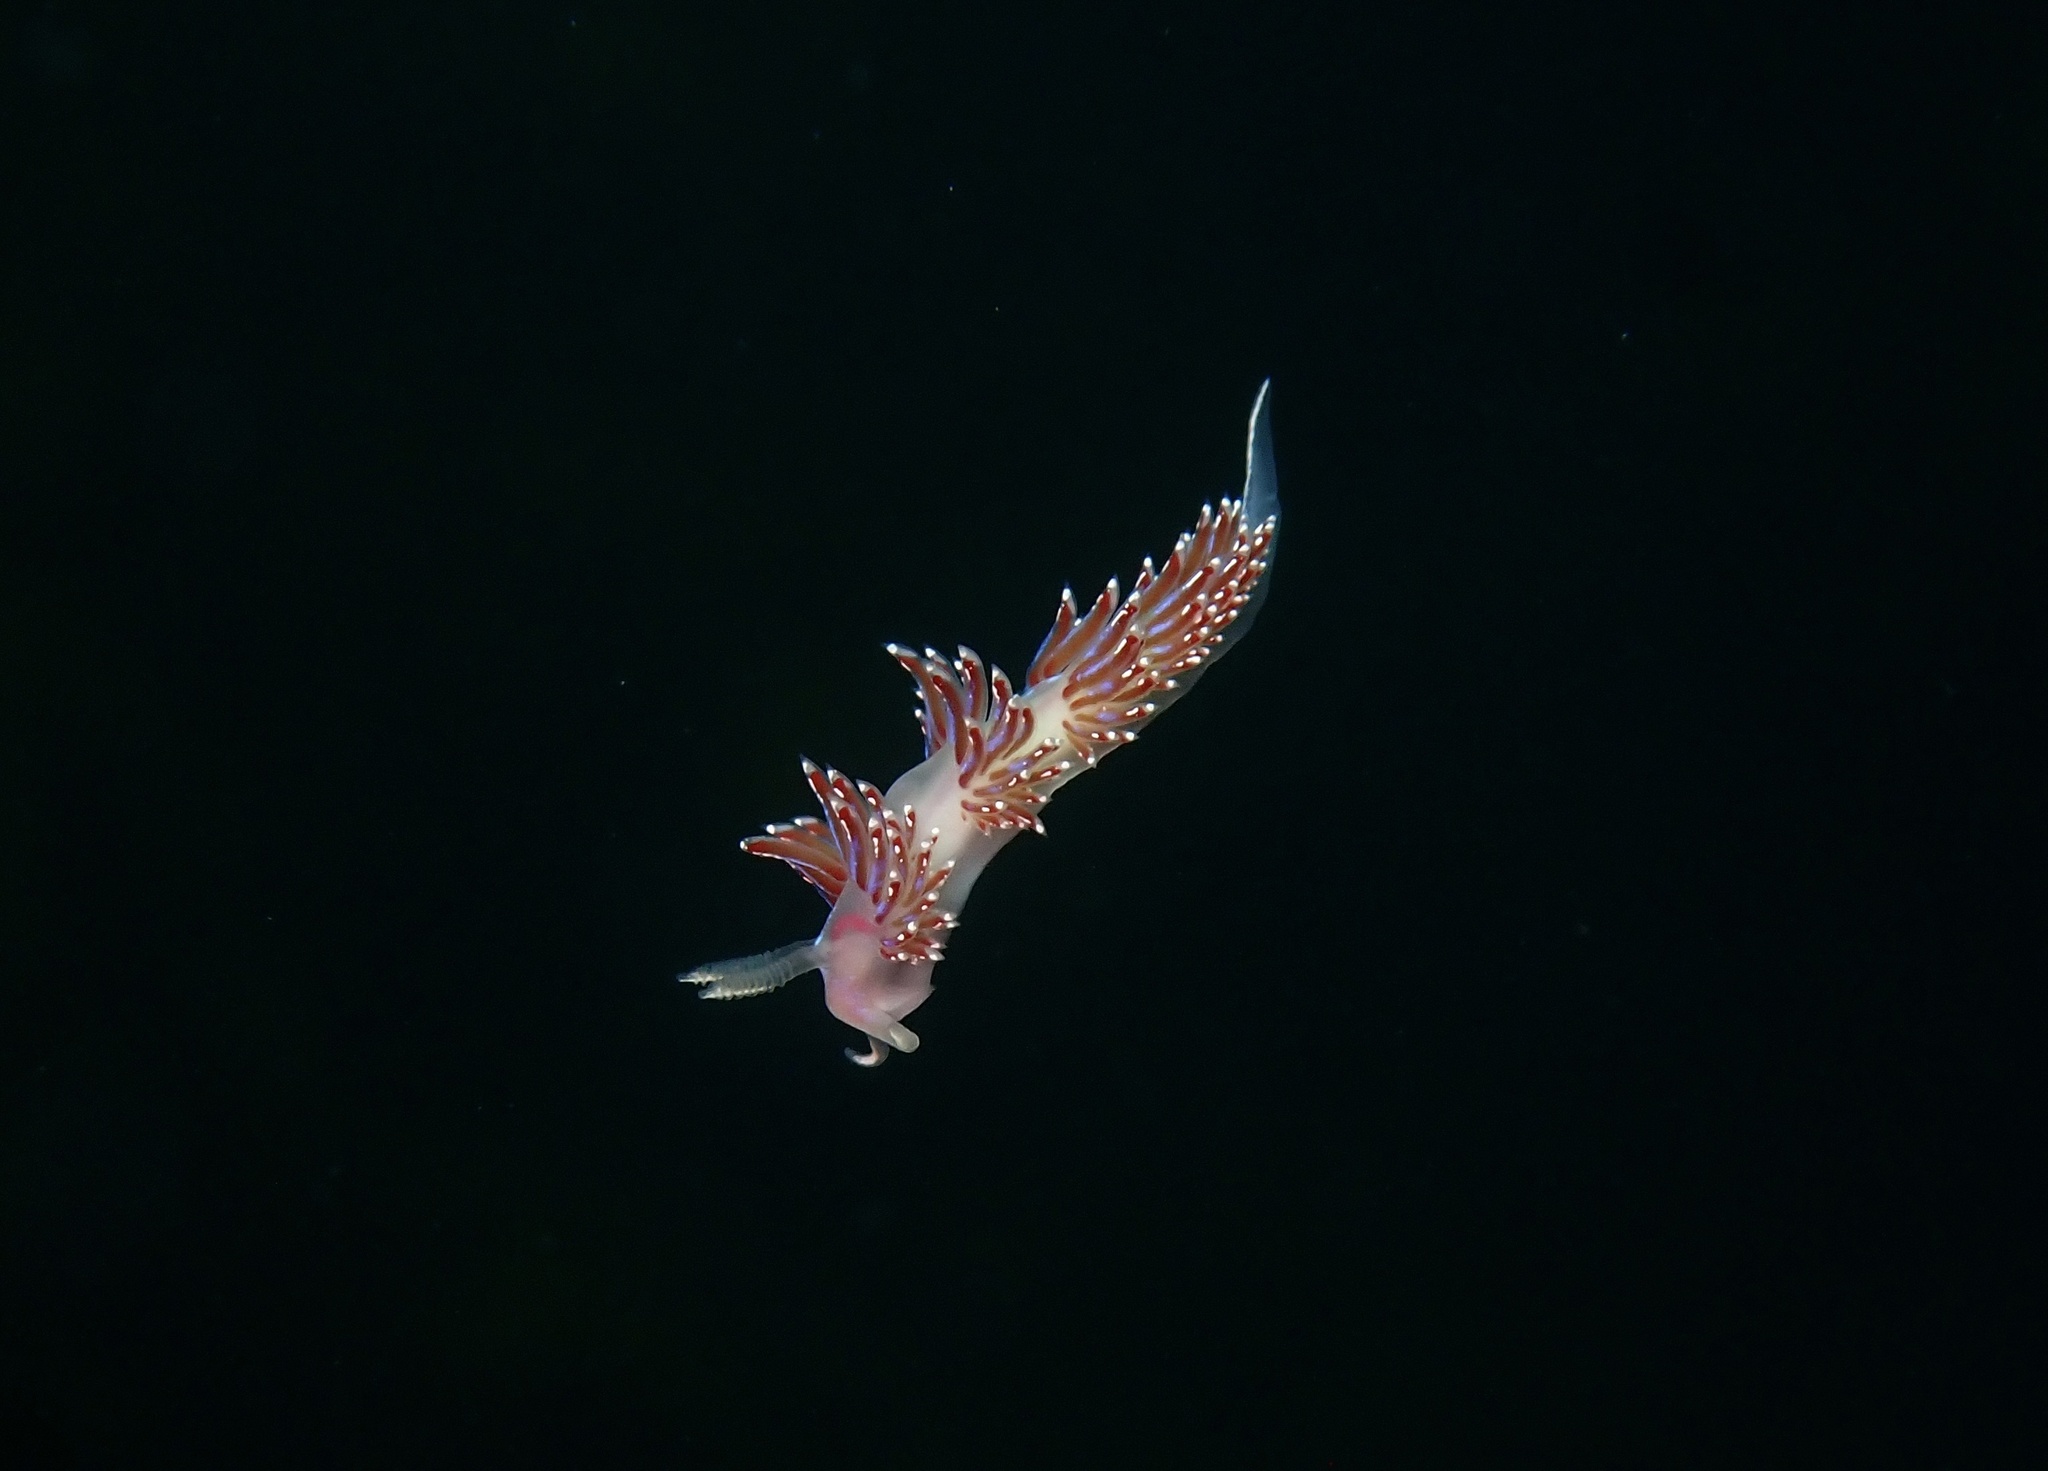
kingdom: Animalia
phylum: Mollusca
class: Gastropoda
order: Nudibranchia
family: Facelinidae
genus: Facelina
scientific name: Facelina auriculata
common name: Slender facelina
